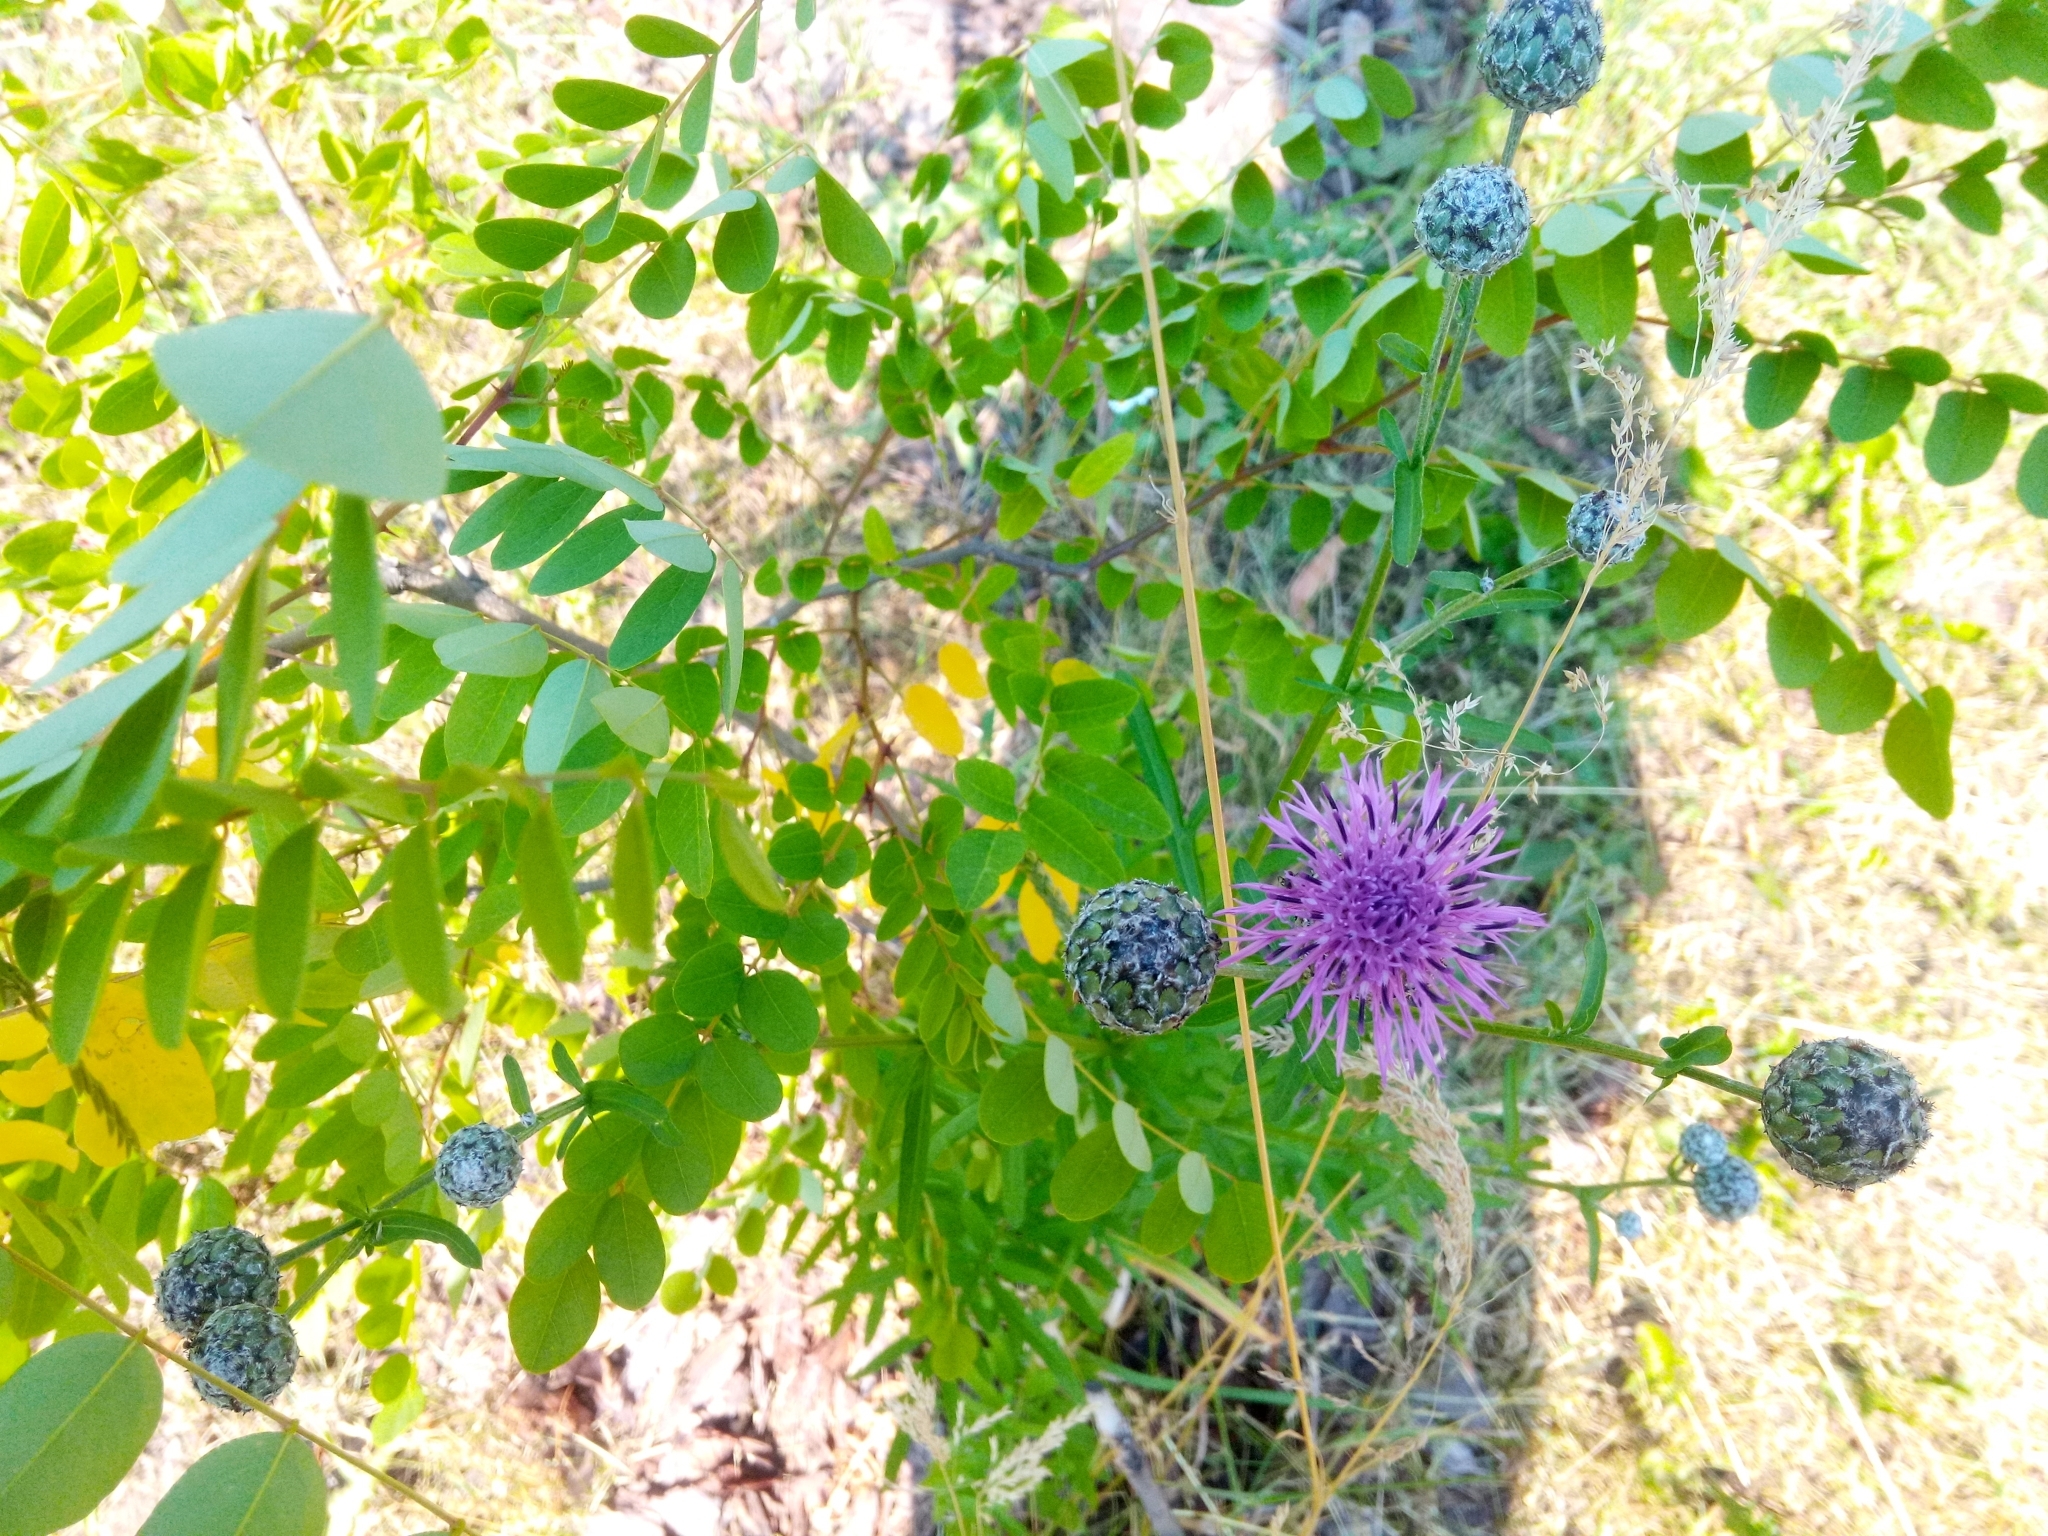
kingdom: Plantae
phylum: Tracheophyta
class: Magnoliopsida
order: Asterales
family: Asteraceae
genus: Centaurea
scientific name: Centaurea scabiosa
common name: Greater knapweed
